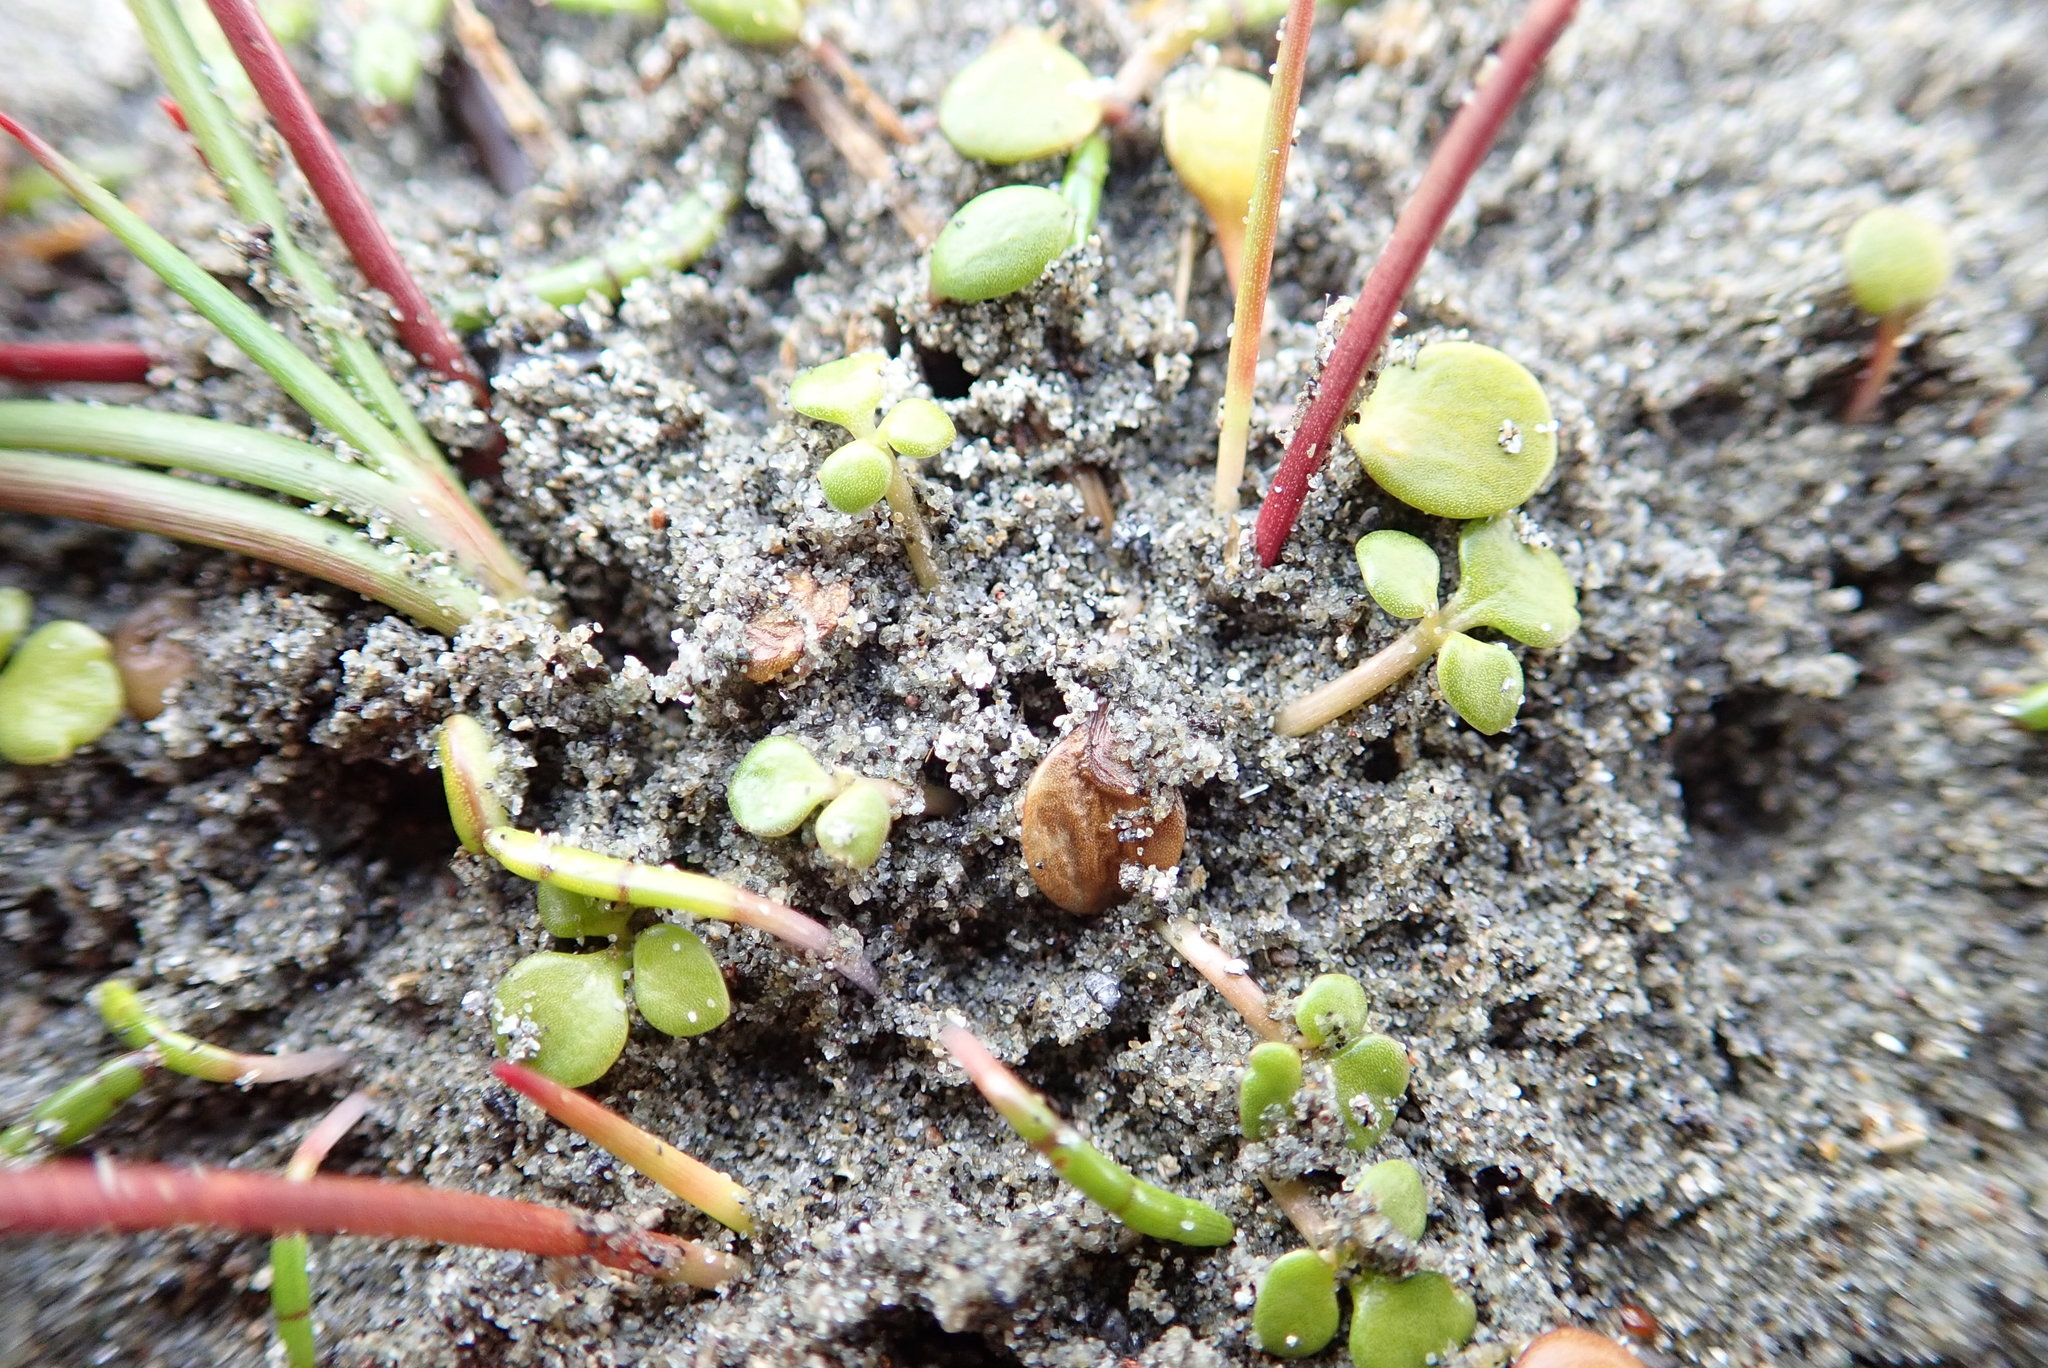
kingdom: Plantae
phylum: Tracheophyta
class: Magnoliopsida
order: Ranunculales
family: Ranunculaceae
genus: Ranunculus
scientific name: Ranunculus acaulis
